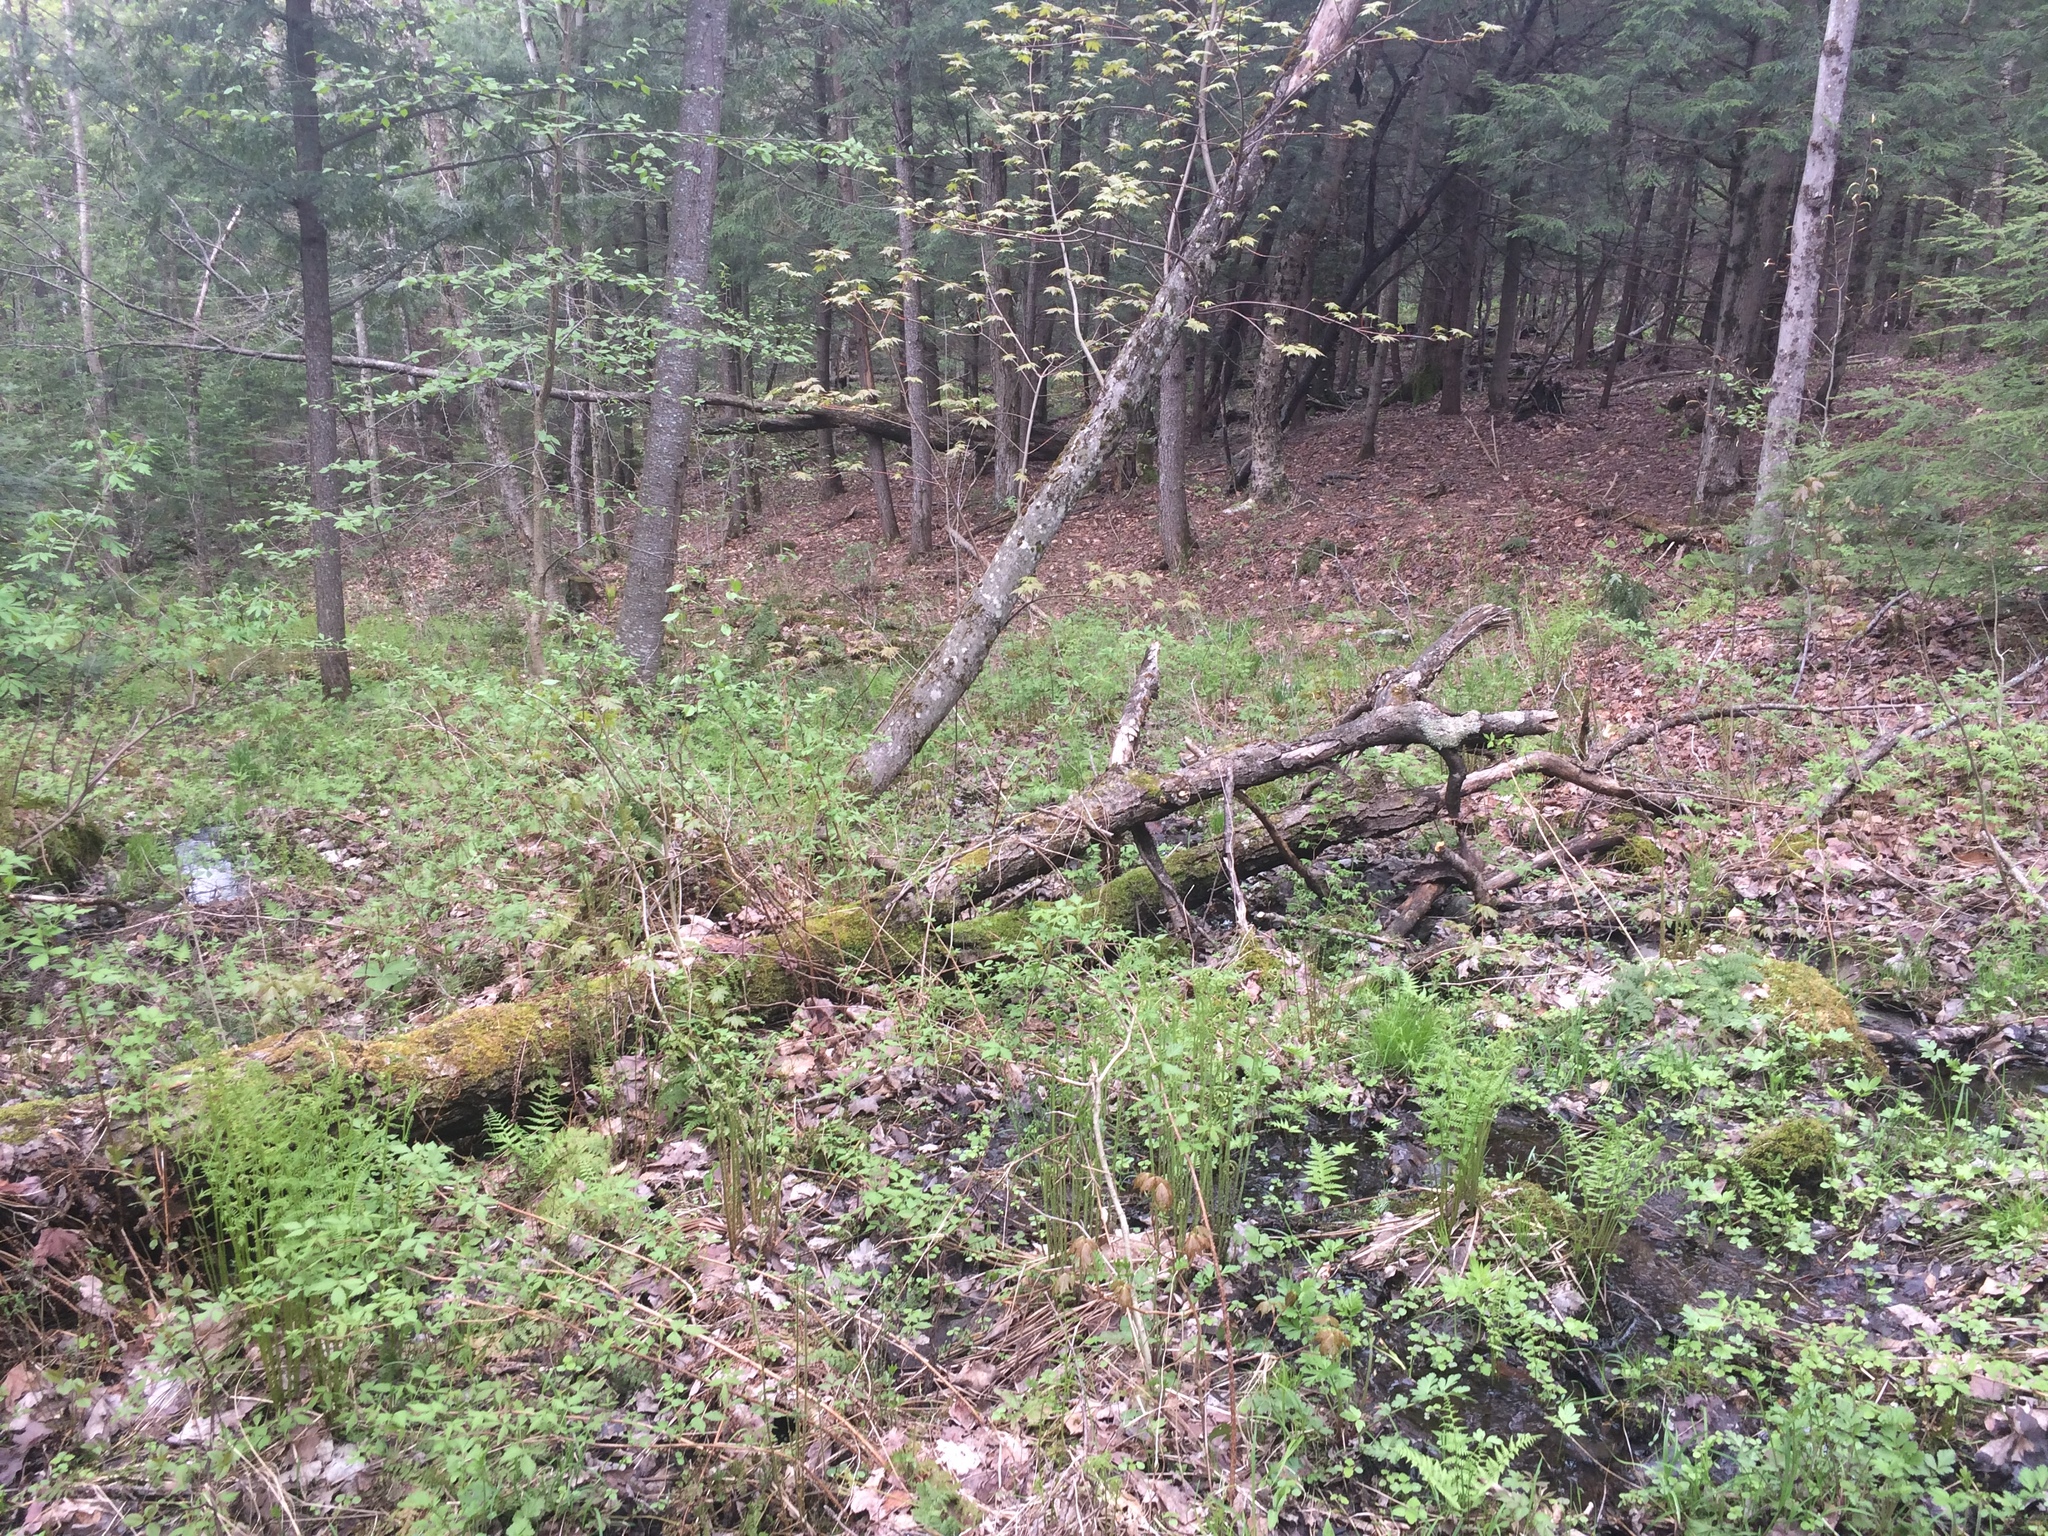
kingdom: Plantae
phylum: Tracheophyta
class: Magnoliopsida
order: Saxifragales
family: Saxifragaceae
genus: Chrysosplenium
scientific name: Chrysosplenium americanum
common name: American golden-saxifrage
